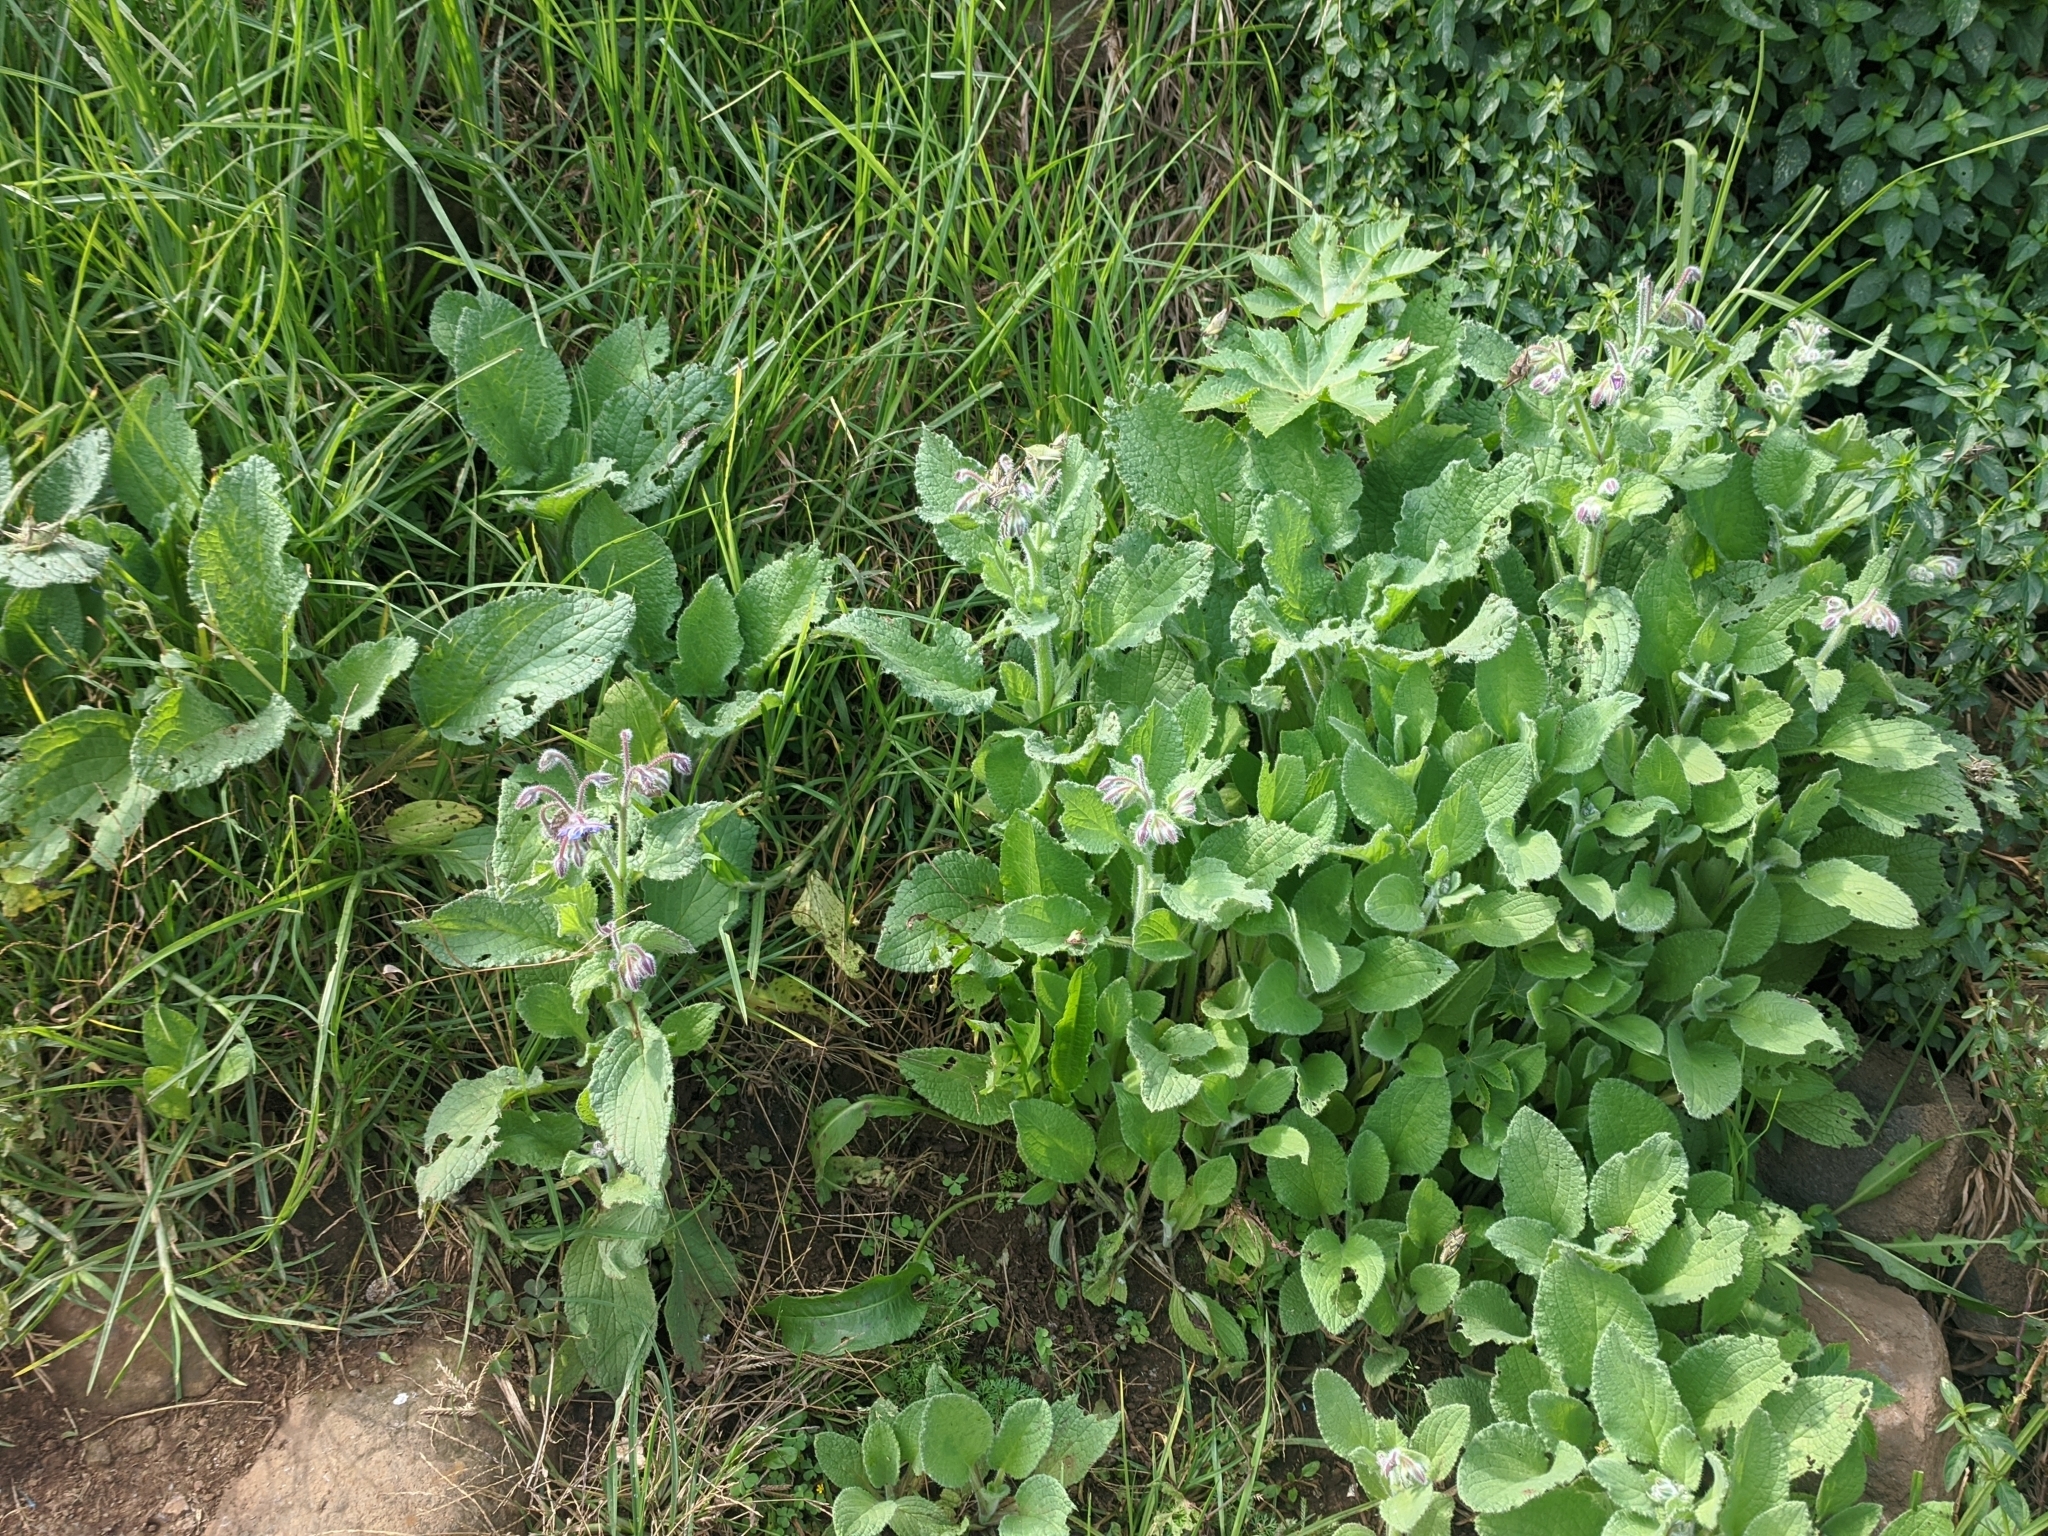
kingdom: Plantae
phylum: Tracheophyta
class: Magnoliopsida
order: Boraginales
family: Boraginaceae
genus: Borago
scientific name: Borago officinalis
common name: Borage
